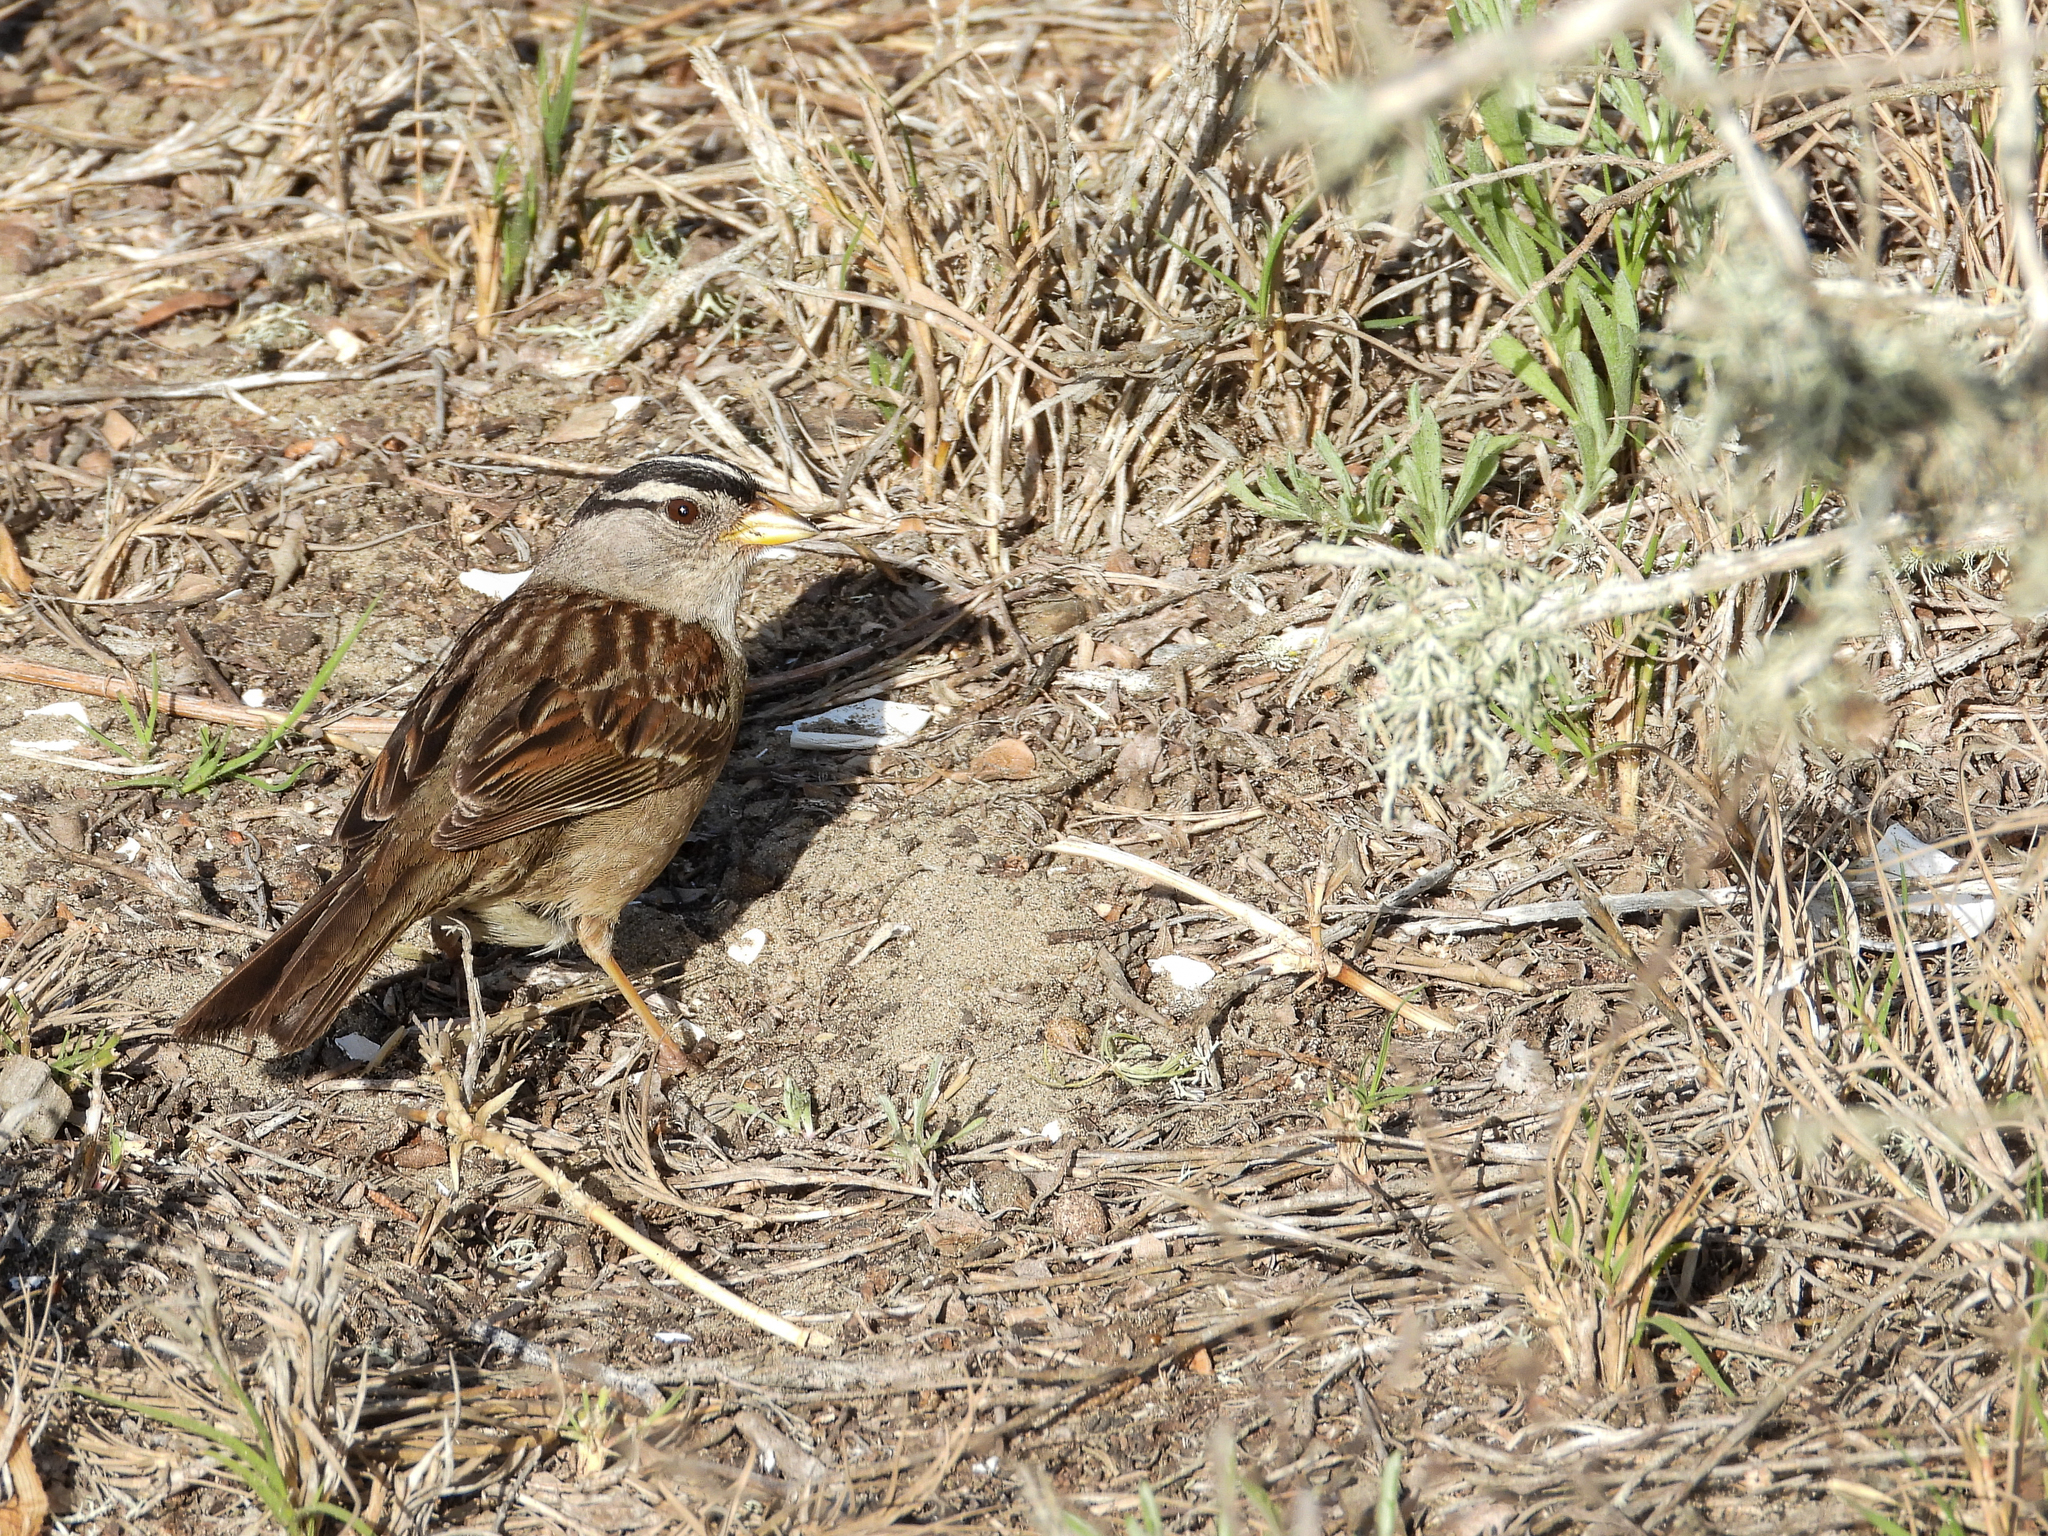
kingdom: Animalia
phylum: Chordata
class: Aves
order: Passeriformes
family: Passerellidae
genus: Zonotrichia
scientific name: Zonotrichia leucophrys
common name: White-crowned sparrow
